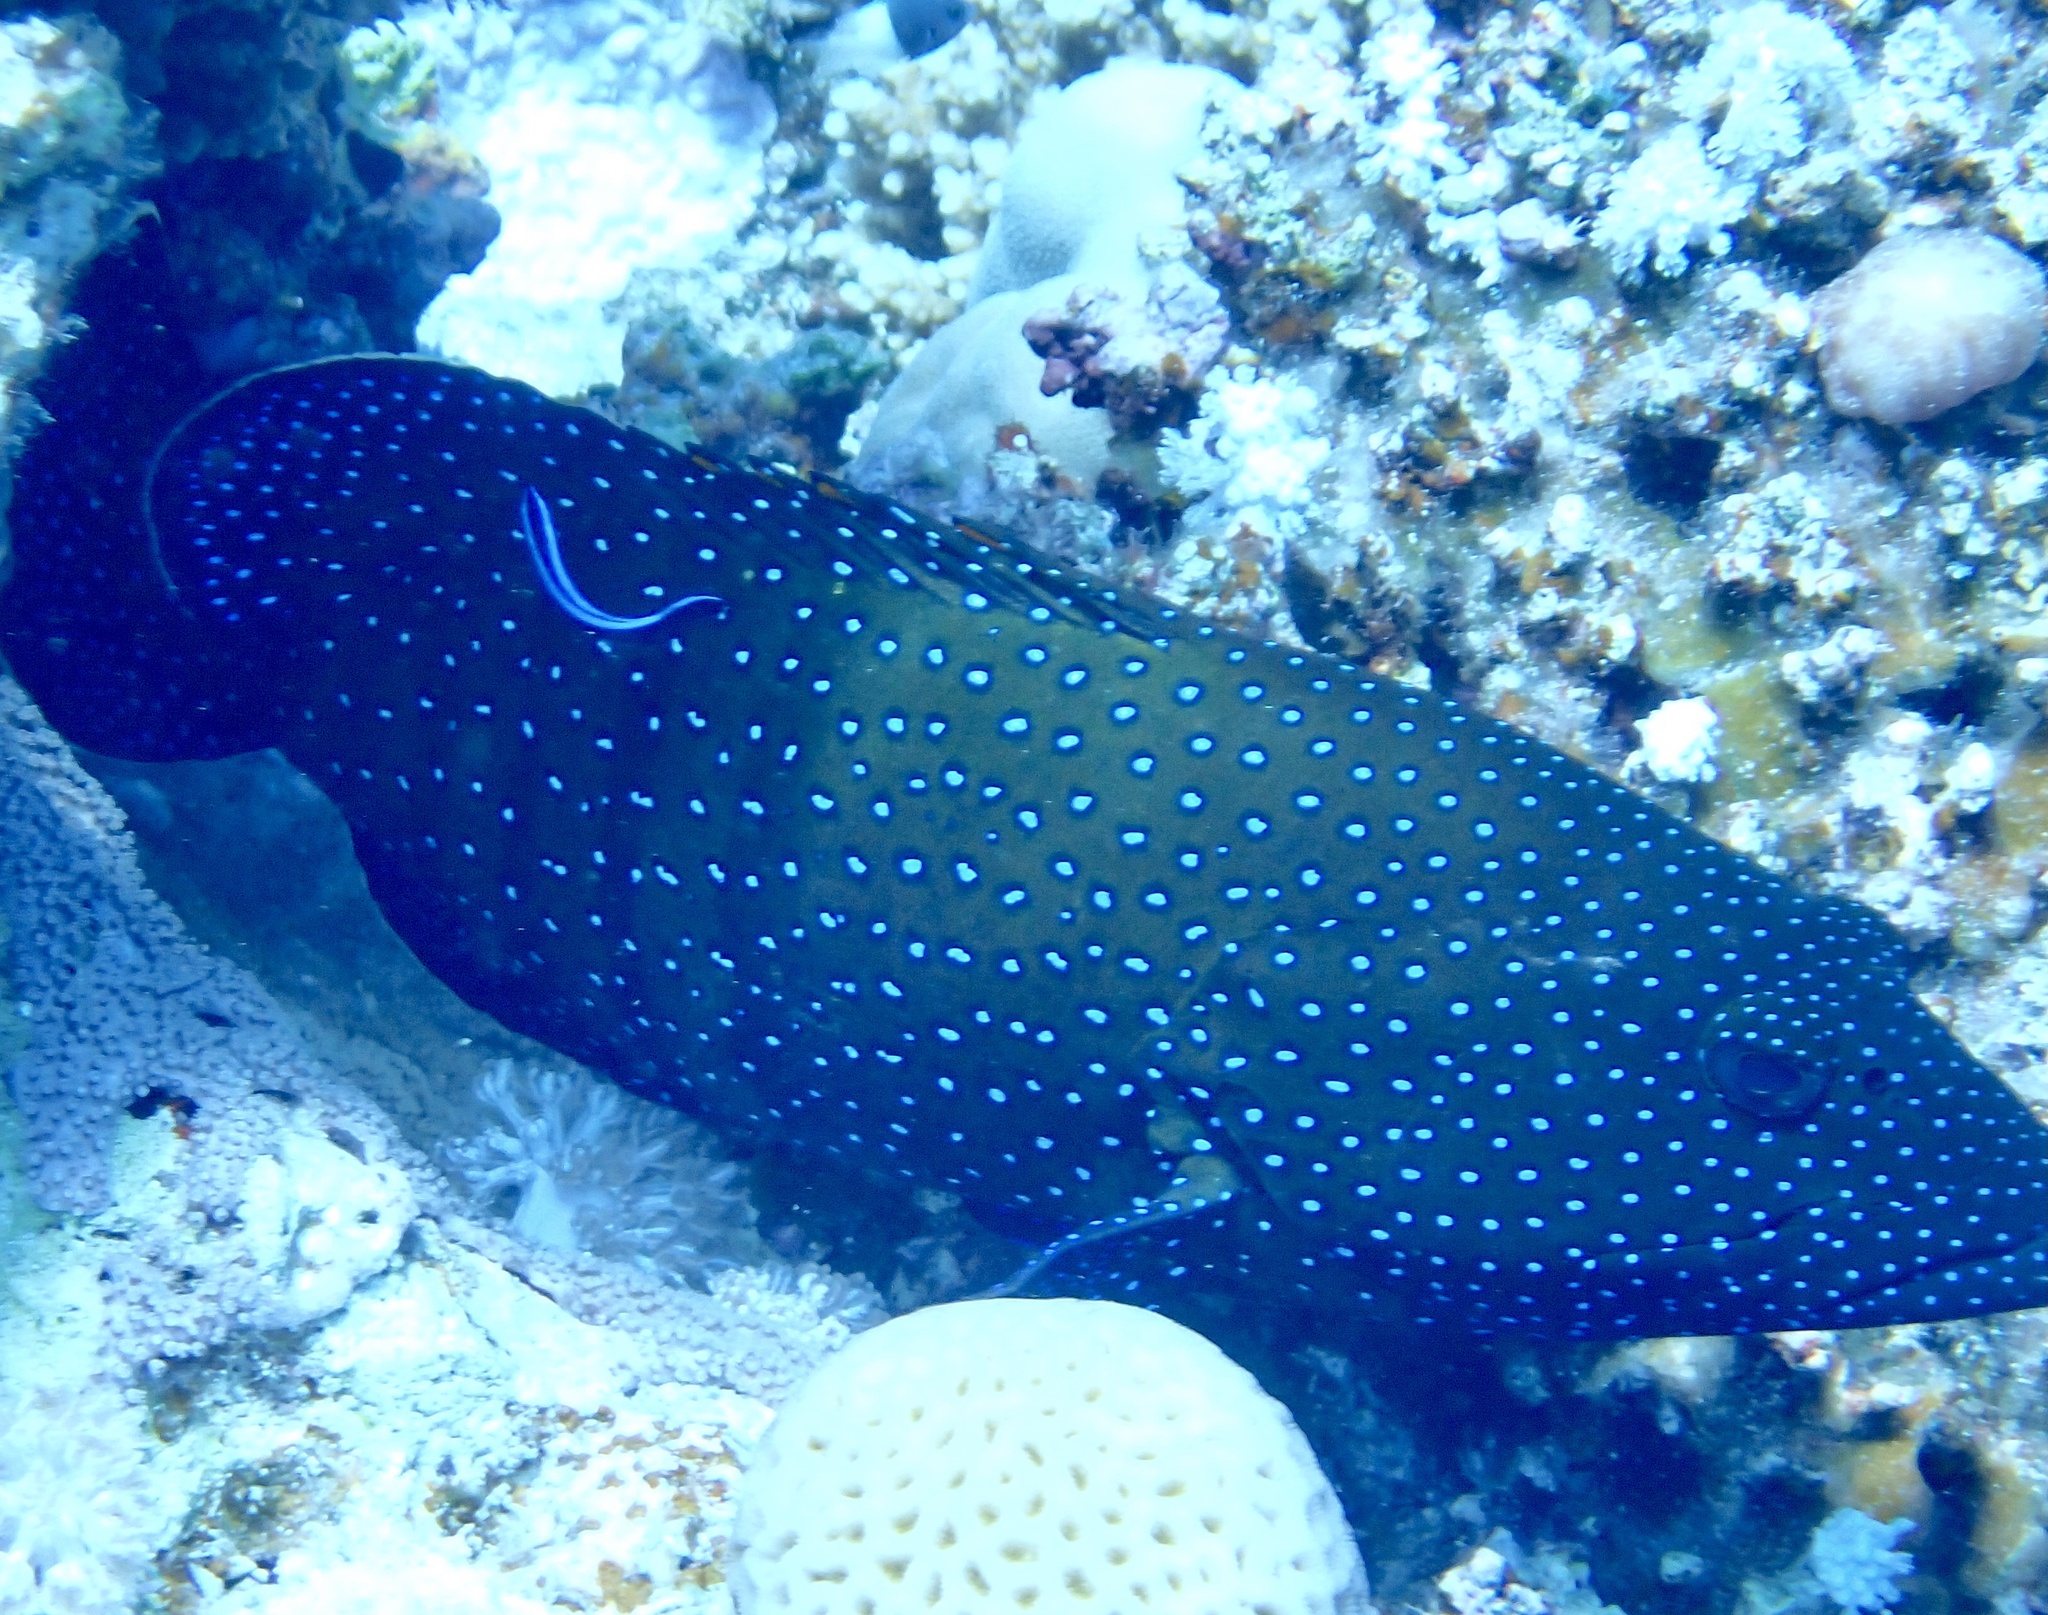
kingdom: Animalia
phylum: Chordata
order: Perciformes
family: Serranidae
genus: Cephalopholis
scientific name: Cephalopholis argus
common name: Peacock grouper
